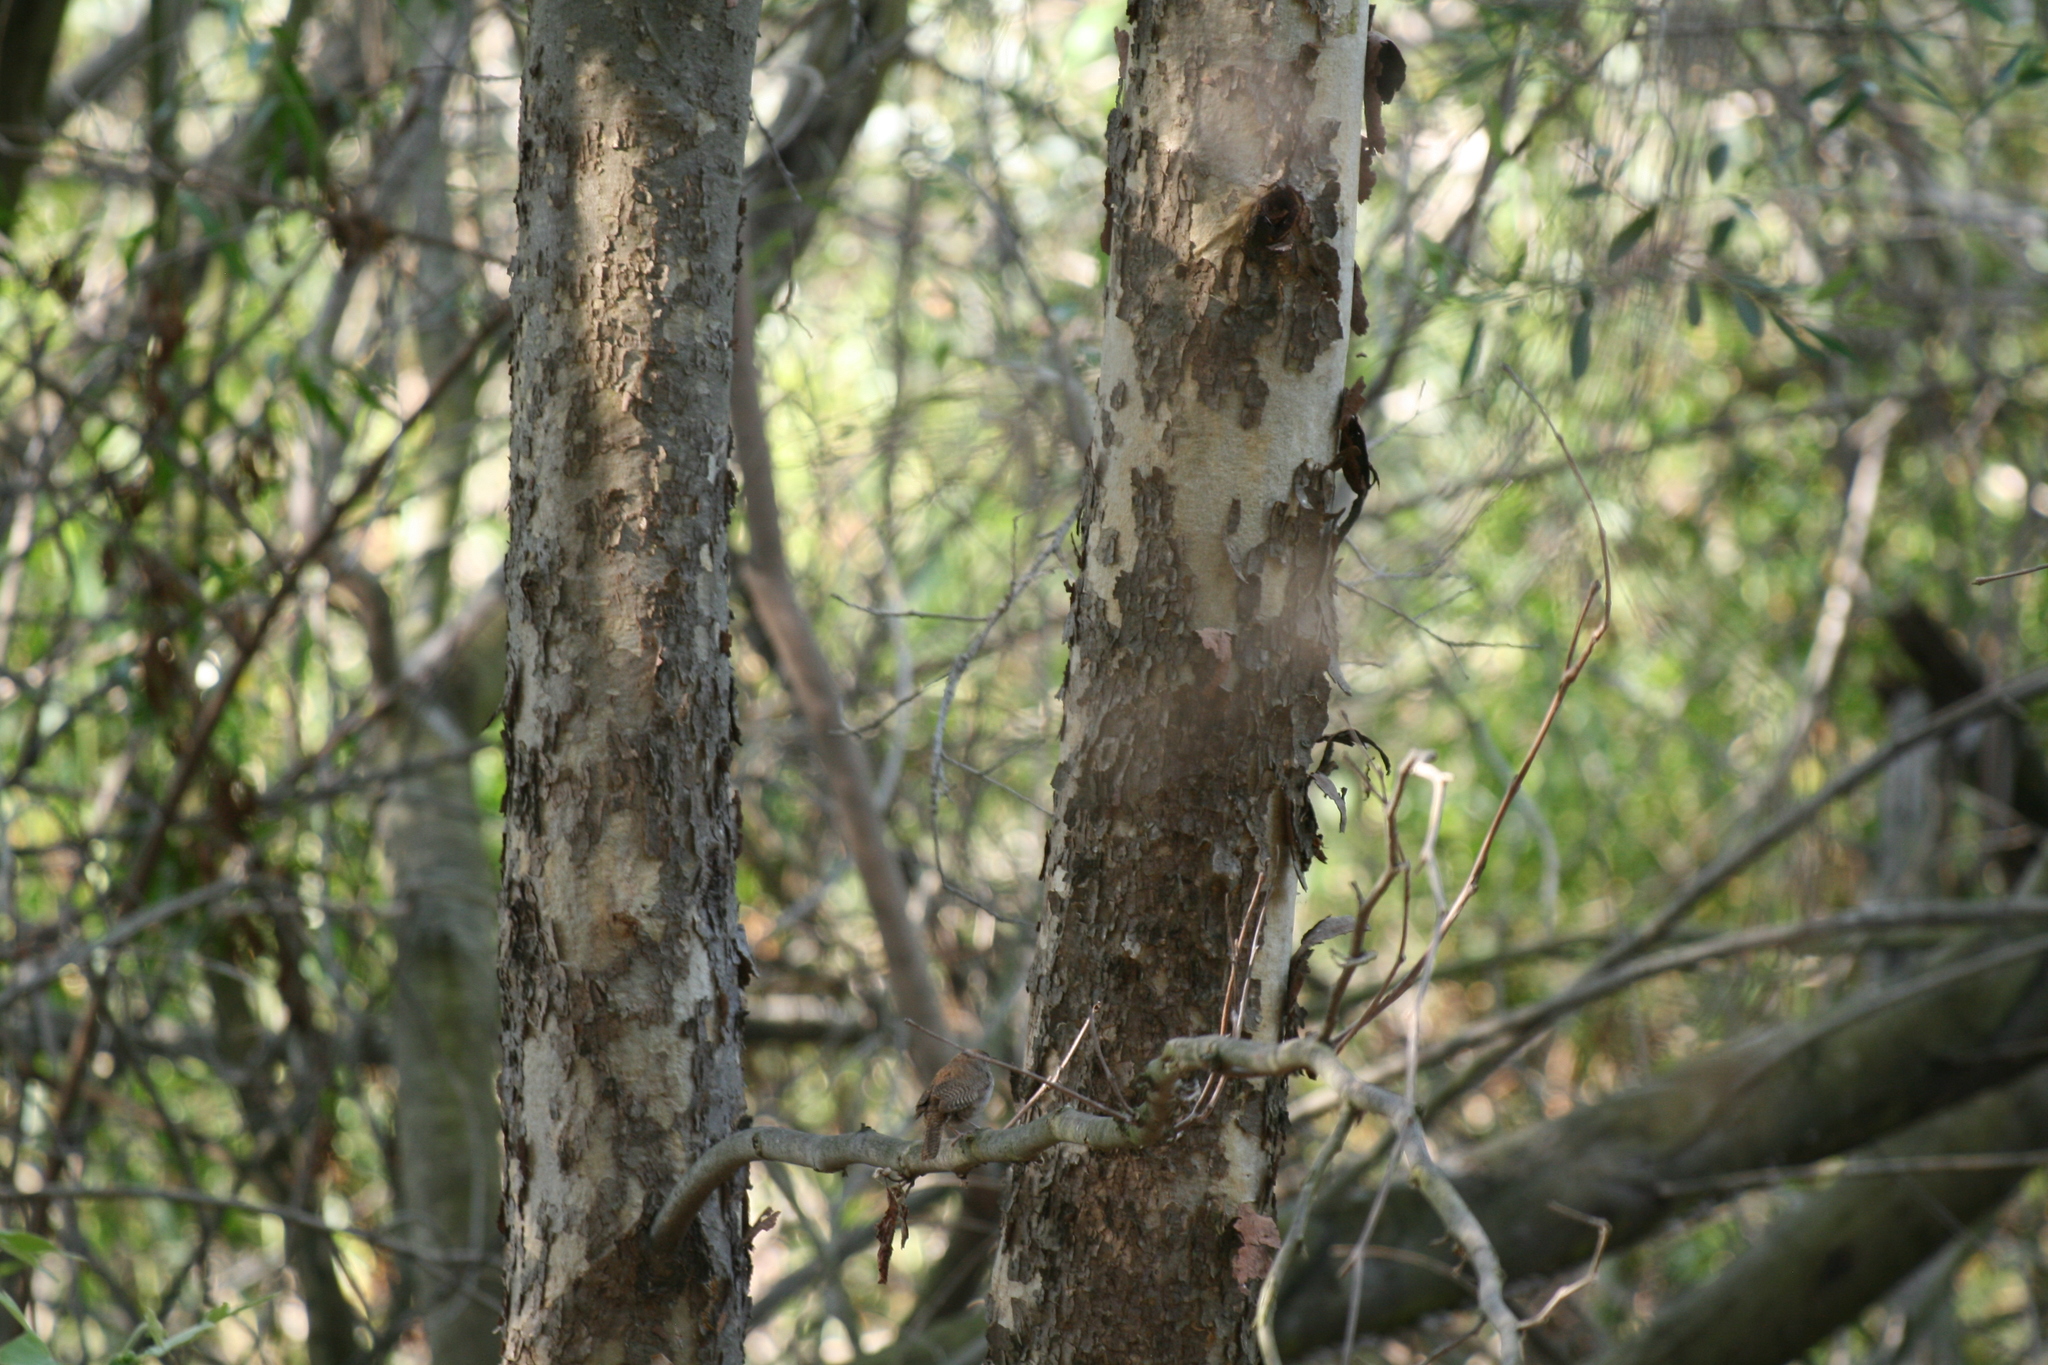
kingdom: Animalia
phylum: Chordata
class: Aves
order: Passeriformes
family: Troglodytidae
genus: Troglodytes
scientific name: Troglodytes aedon
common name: House wren
